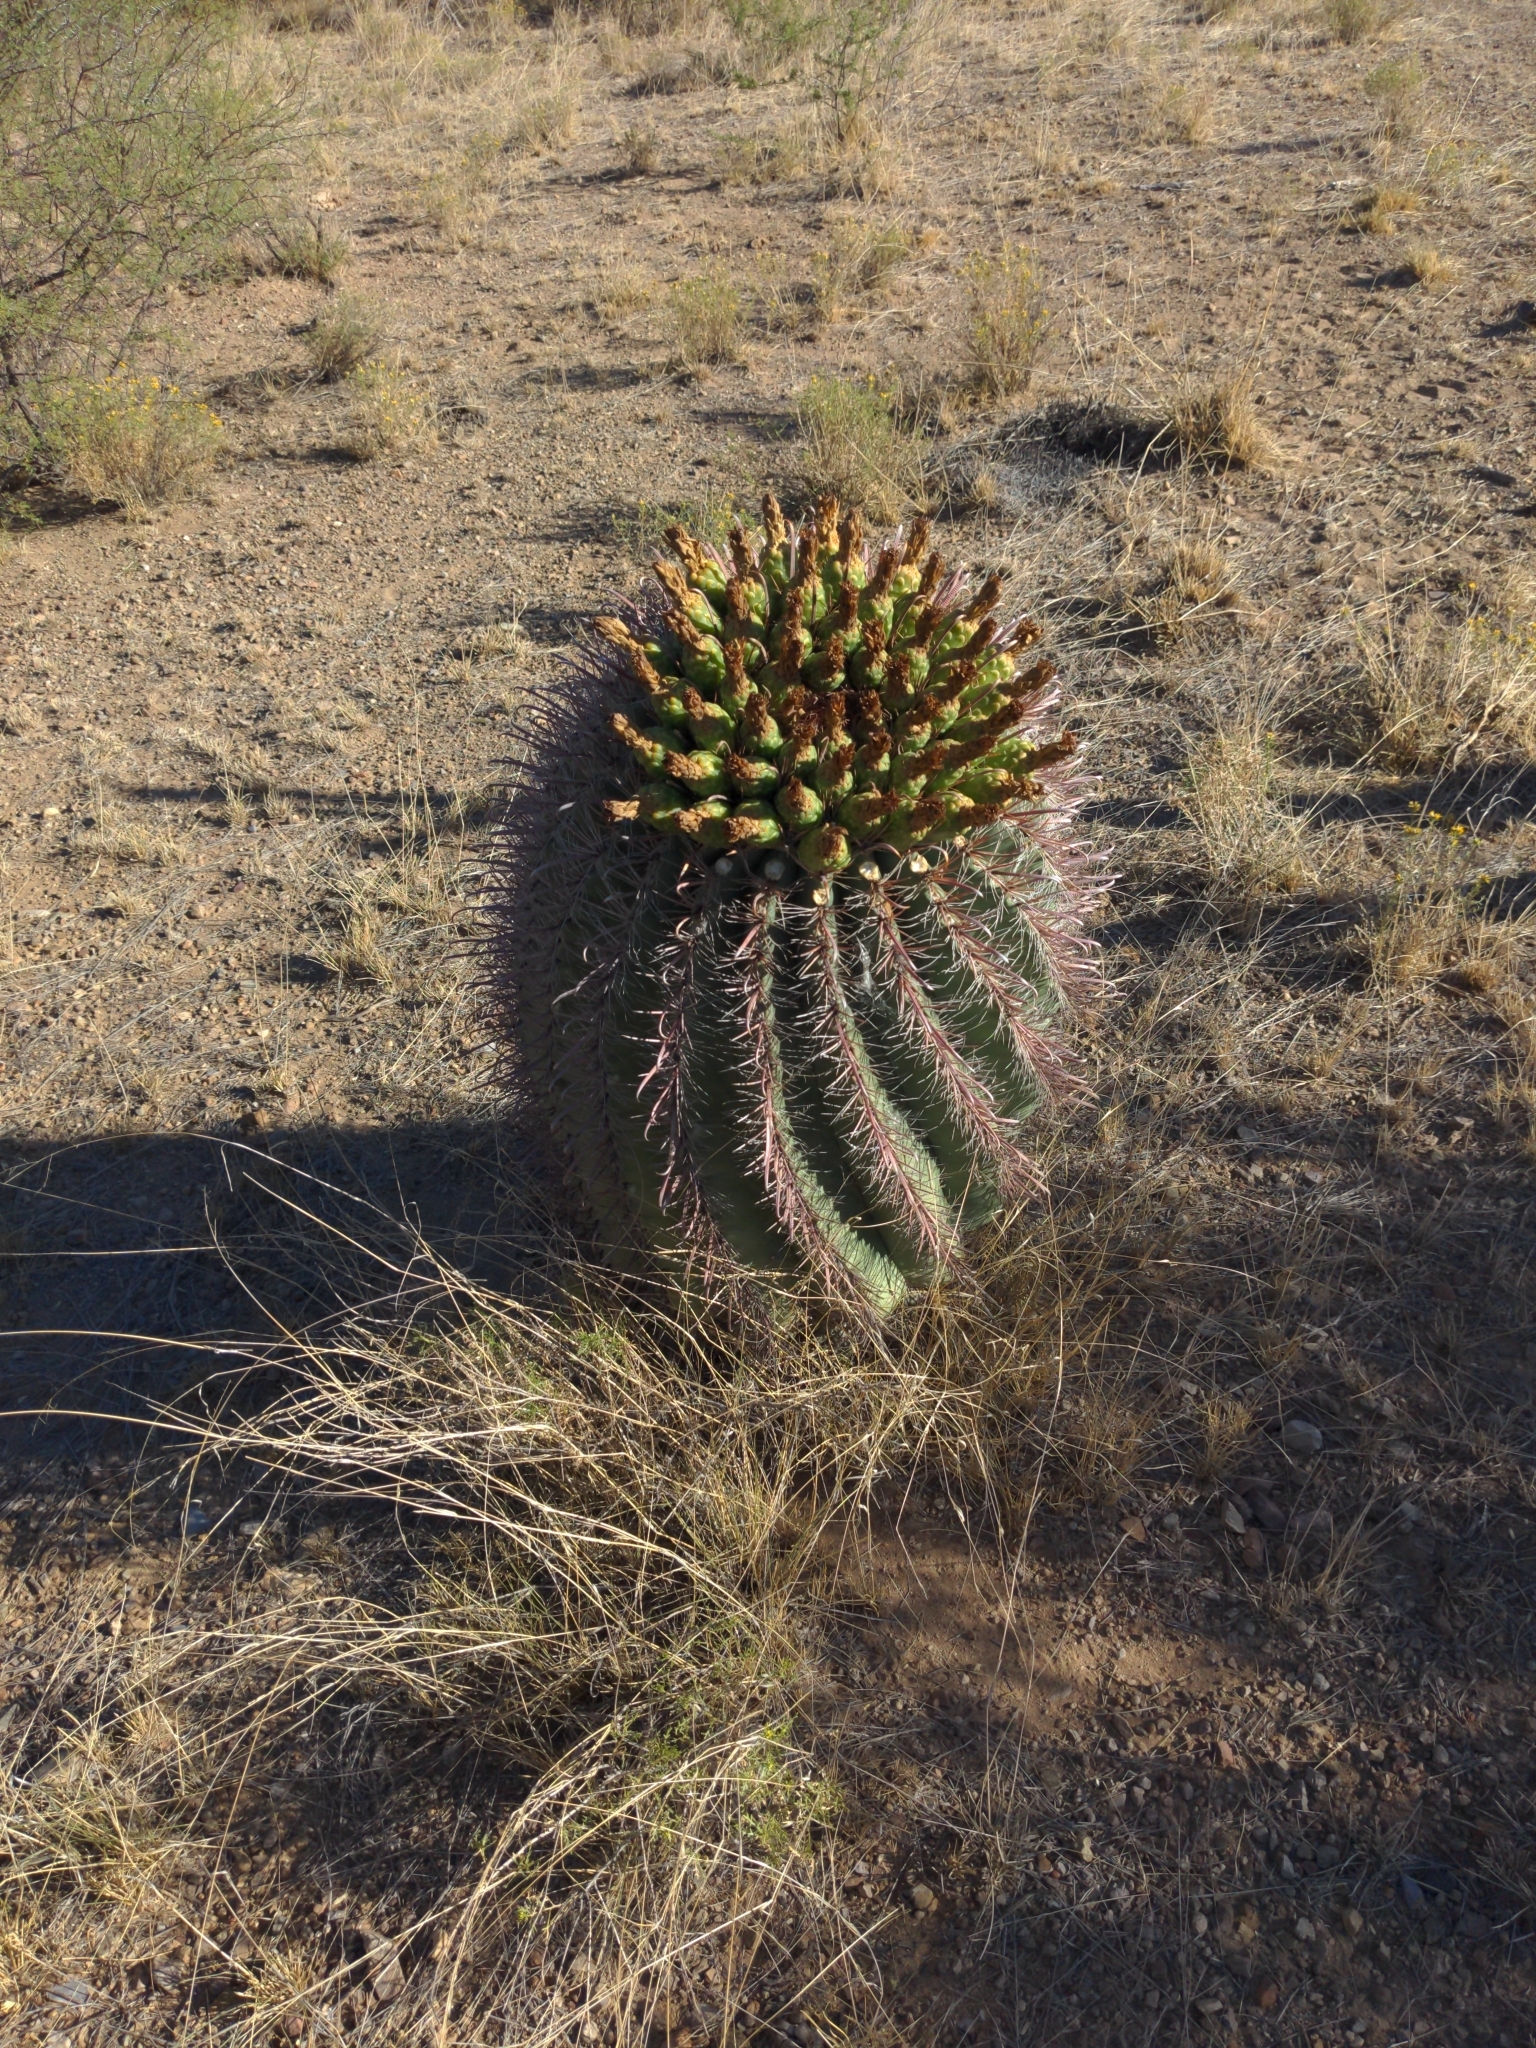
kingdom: Plantae
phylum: Tracheophyta
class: Magnoliopsida
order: Caryophyllales
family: Cactaceae
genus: Ferocactus
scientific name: Ferocactus wislizeni
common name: Candy barrel cactus
